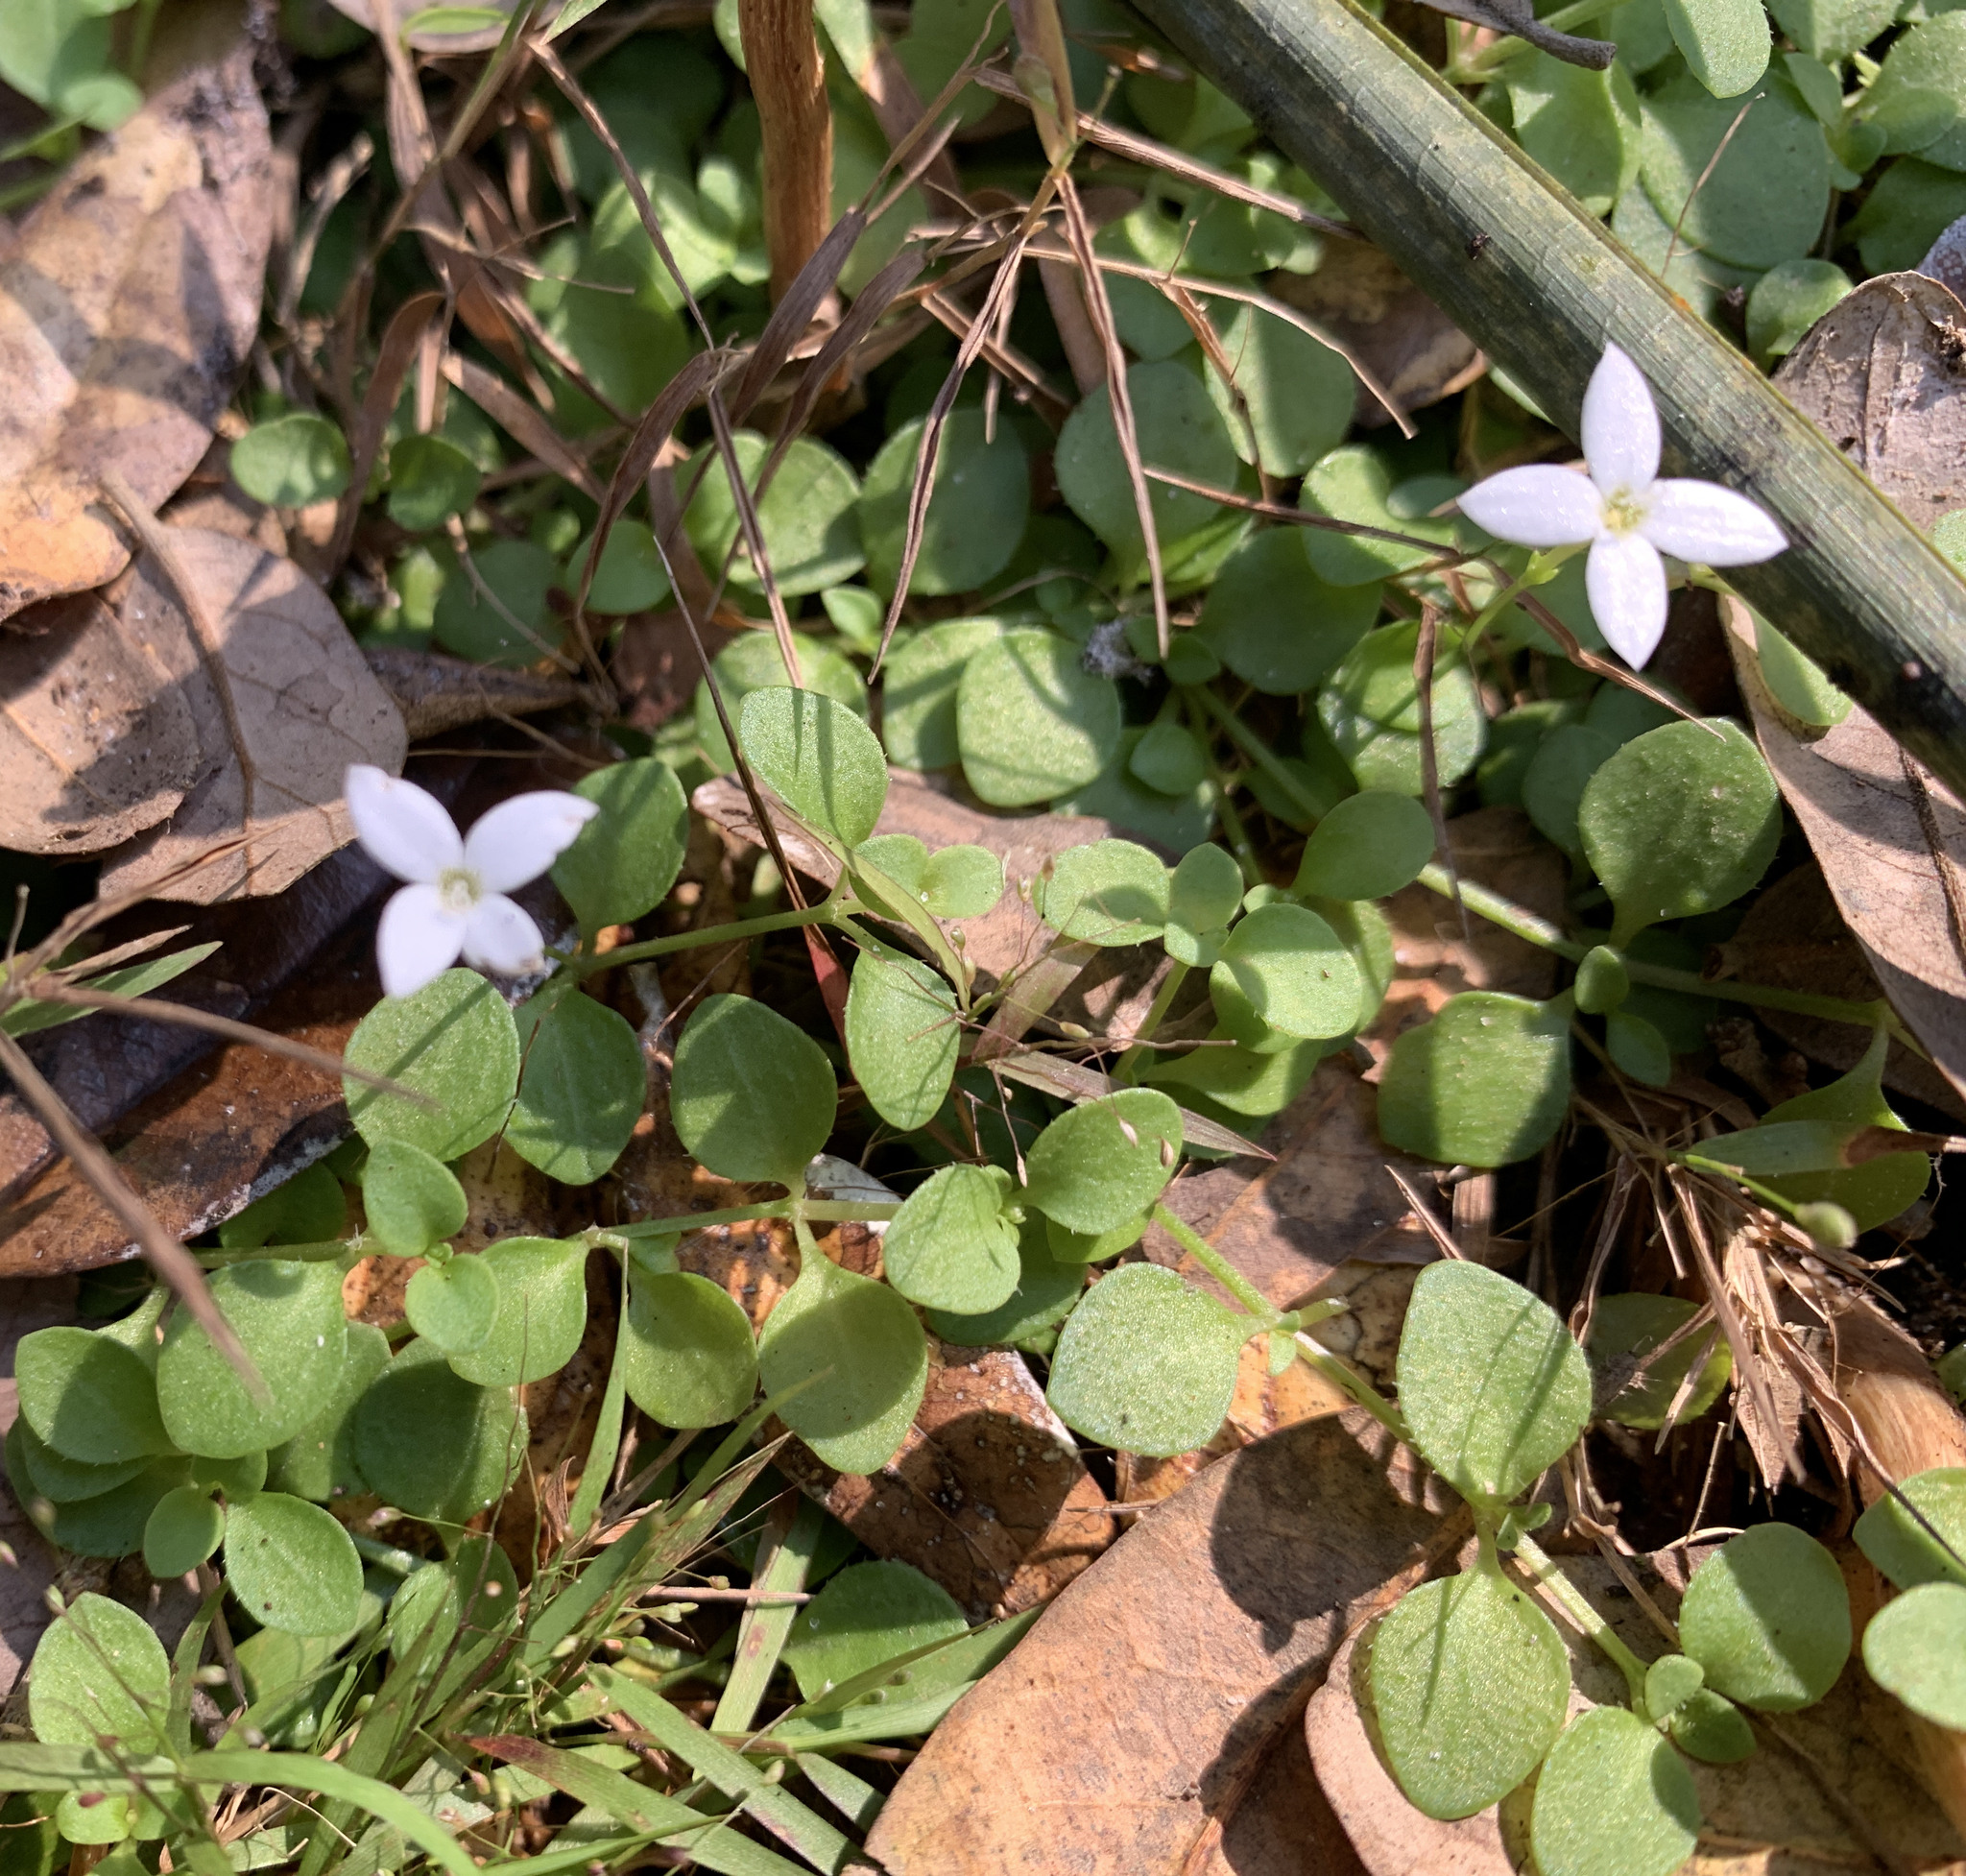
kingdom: Plantae
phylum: Tracheophyta
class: Magnoliopsida
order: Gentianales
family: Rubiaceae
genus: Houstonia
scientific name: Houstonia procumbens
